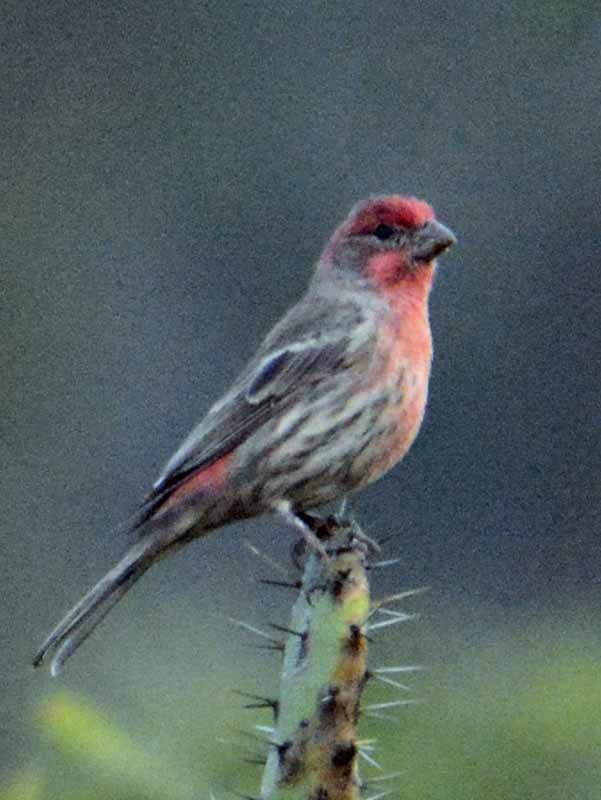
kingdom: Animalia
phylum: Chordata
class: Aves
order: Passeriformes
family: Fringillidae
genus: Haemorhous
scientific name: Haemorhous mexicanus
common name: House finch
